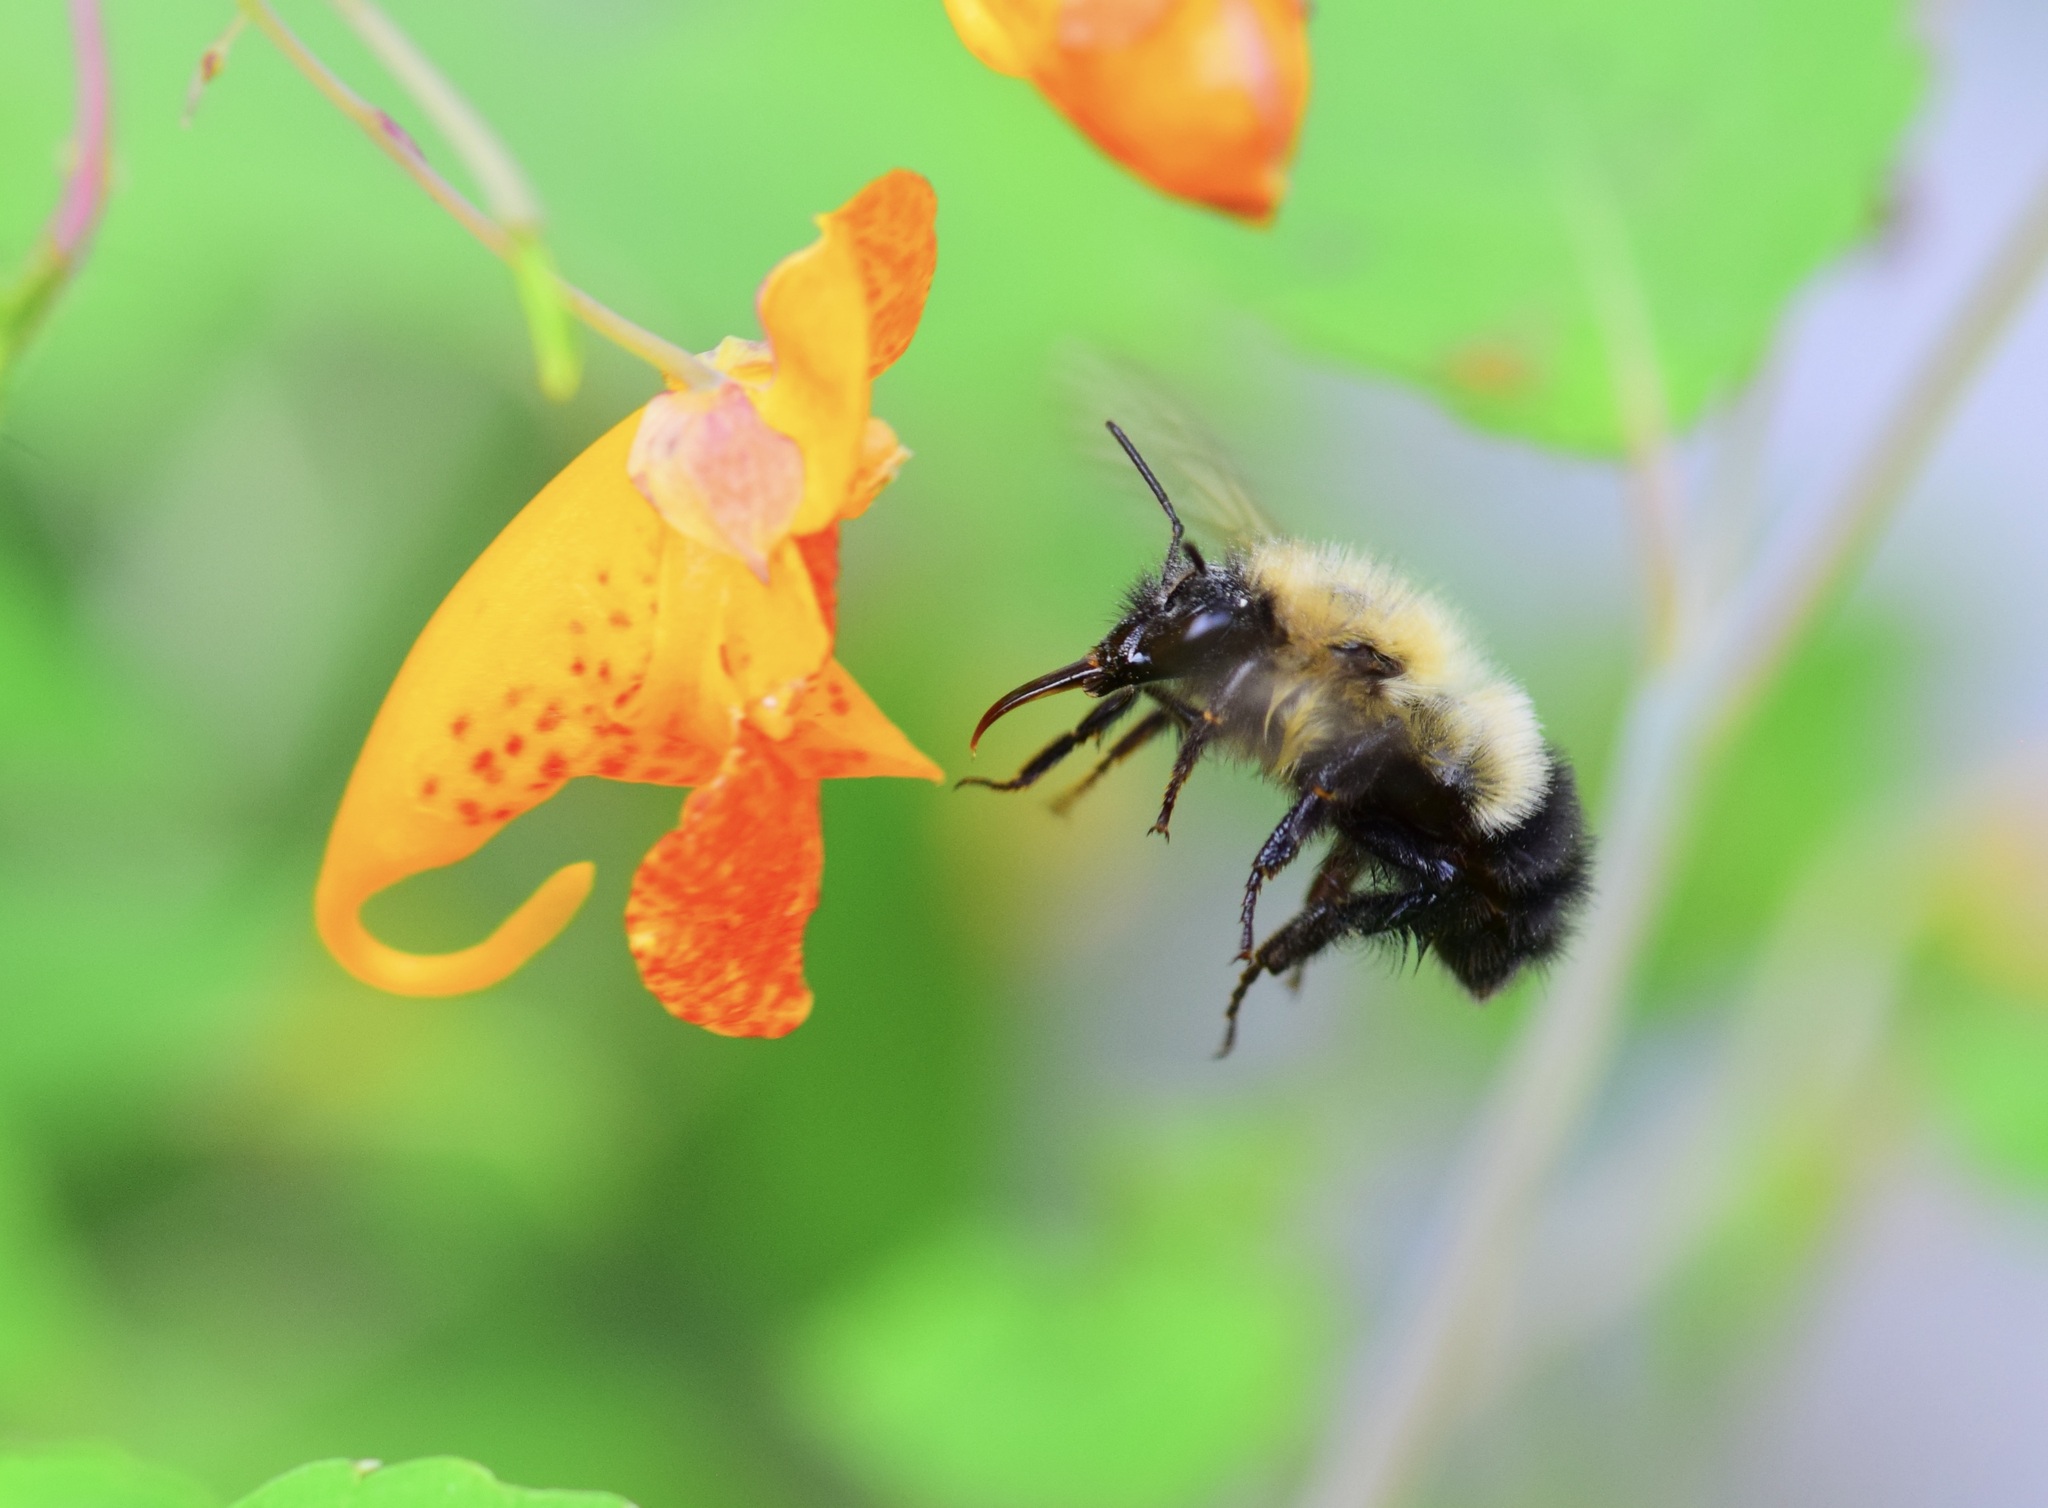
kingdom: Animalia
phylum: Arthropoda
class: Insecta
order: Hymenoptera
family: Apidae
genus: Bombus
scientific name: Bombus vagans
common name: Half-black bumble bee
